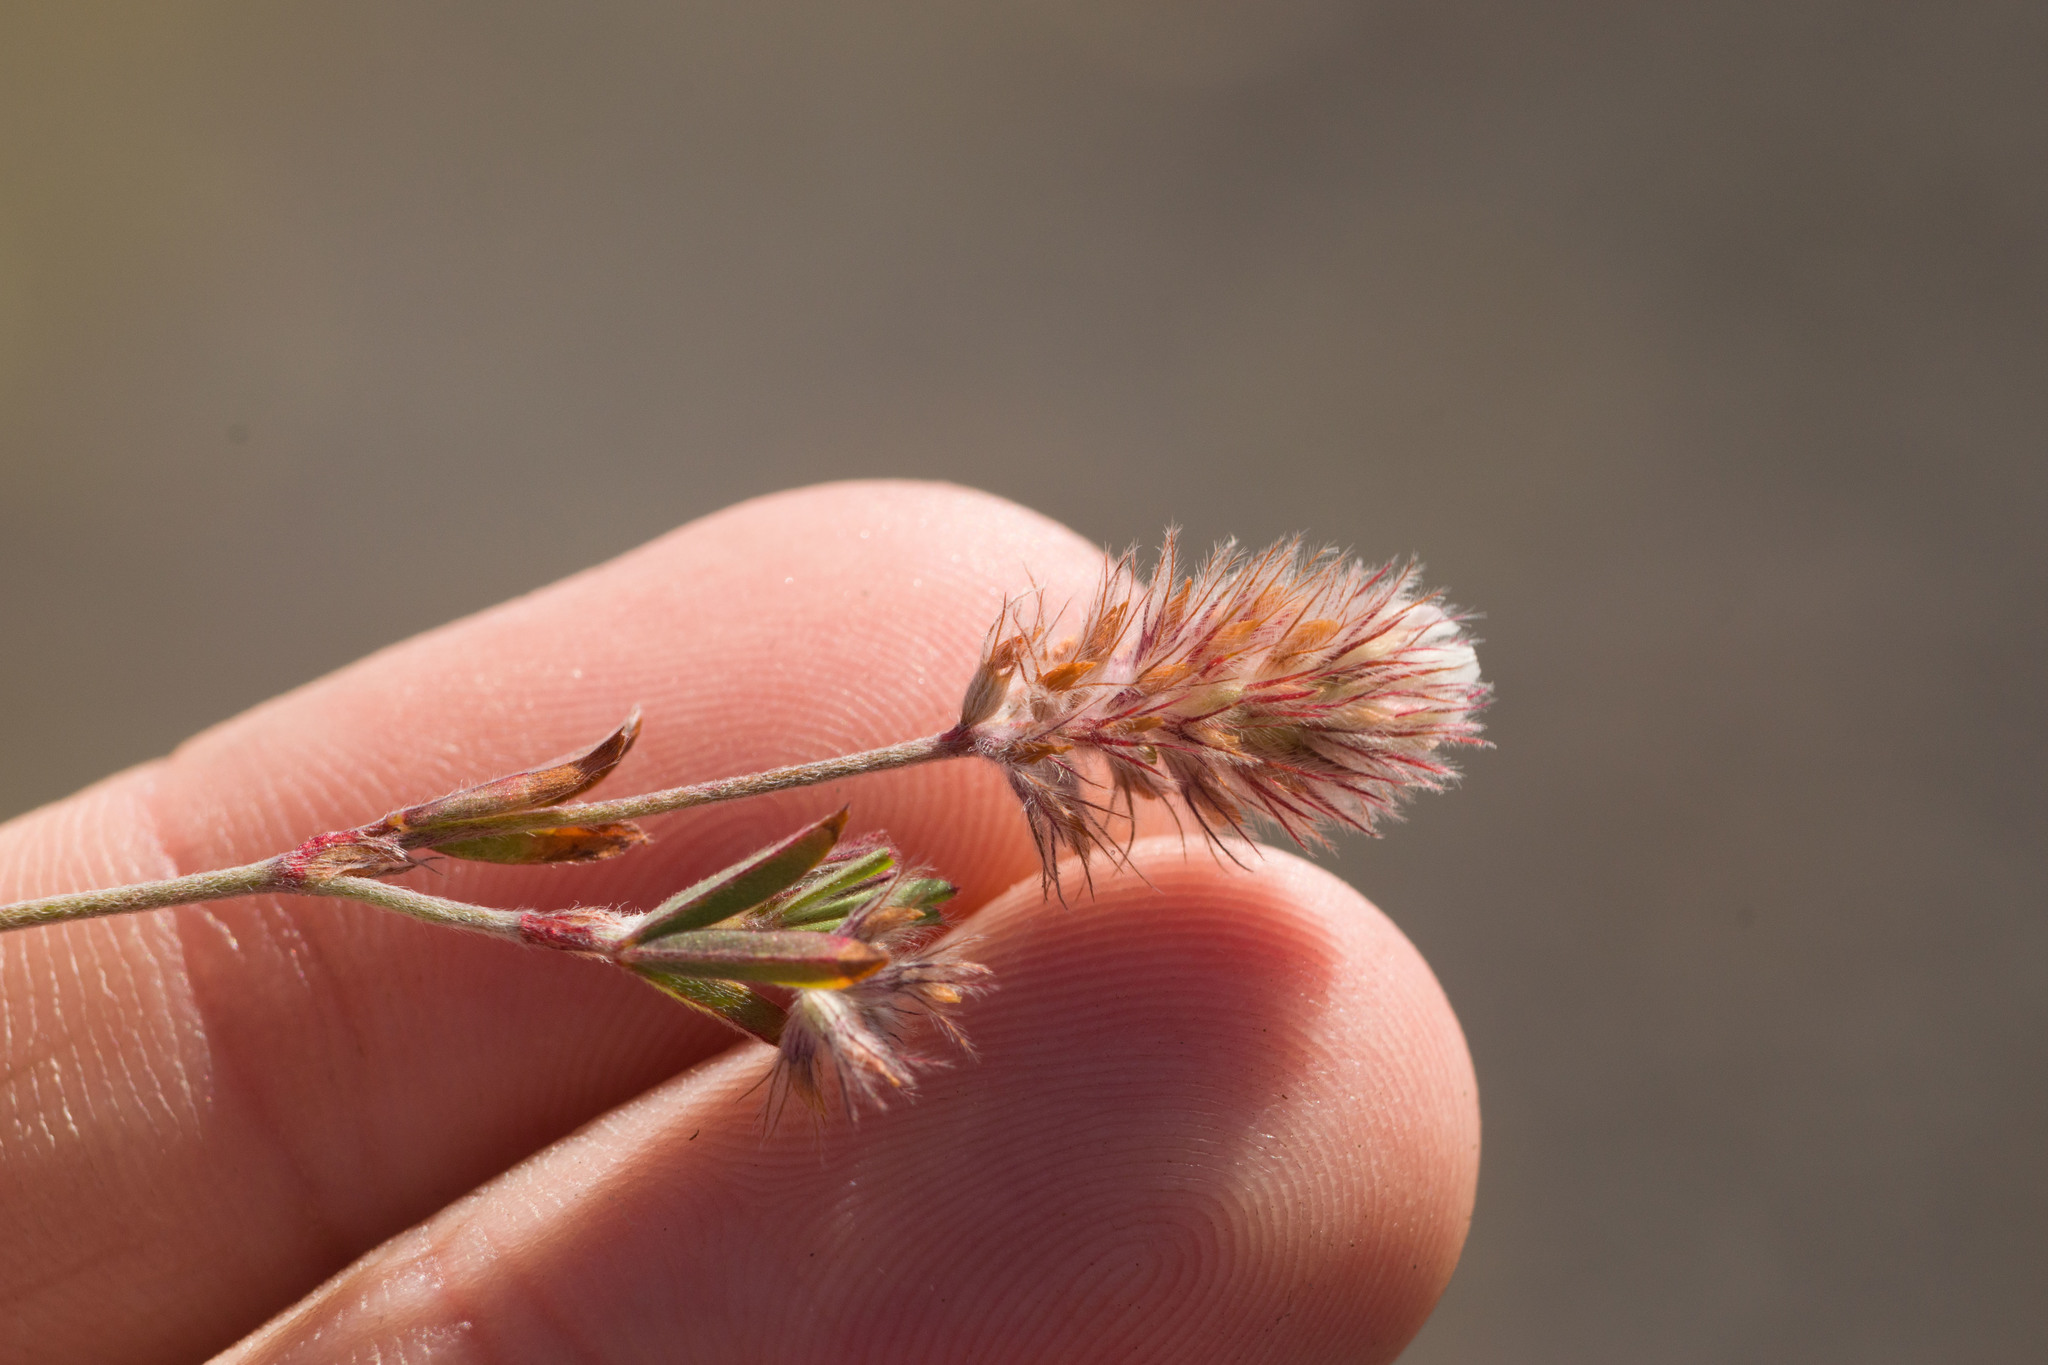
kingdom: Plantae
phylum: Tracheophyta
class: Magnoliopsida
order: Fabales
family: Fabaceae
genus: Trifolium
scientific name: Trifolium arvense
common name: Hare's-foot clover
